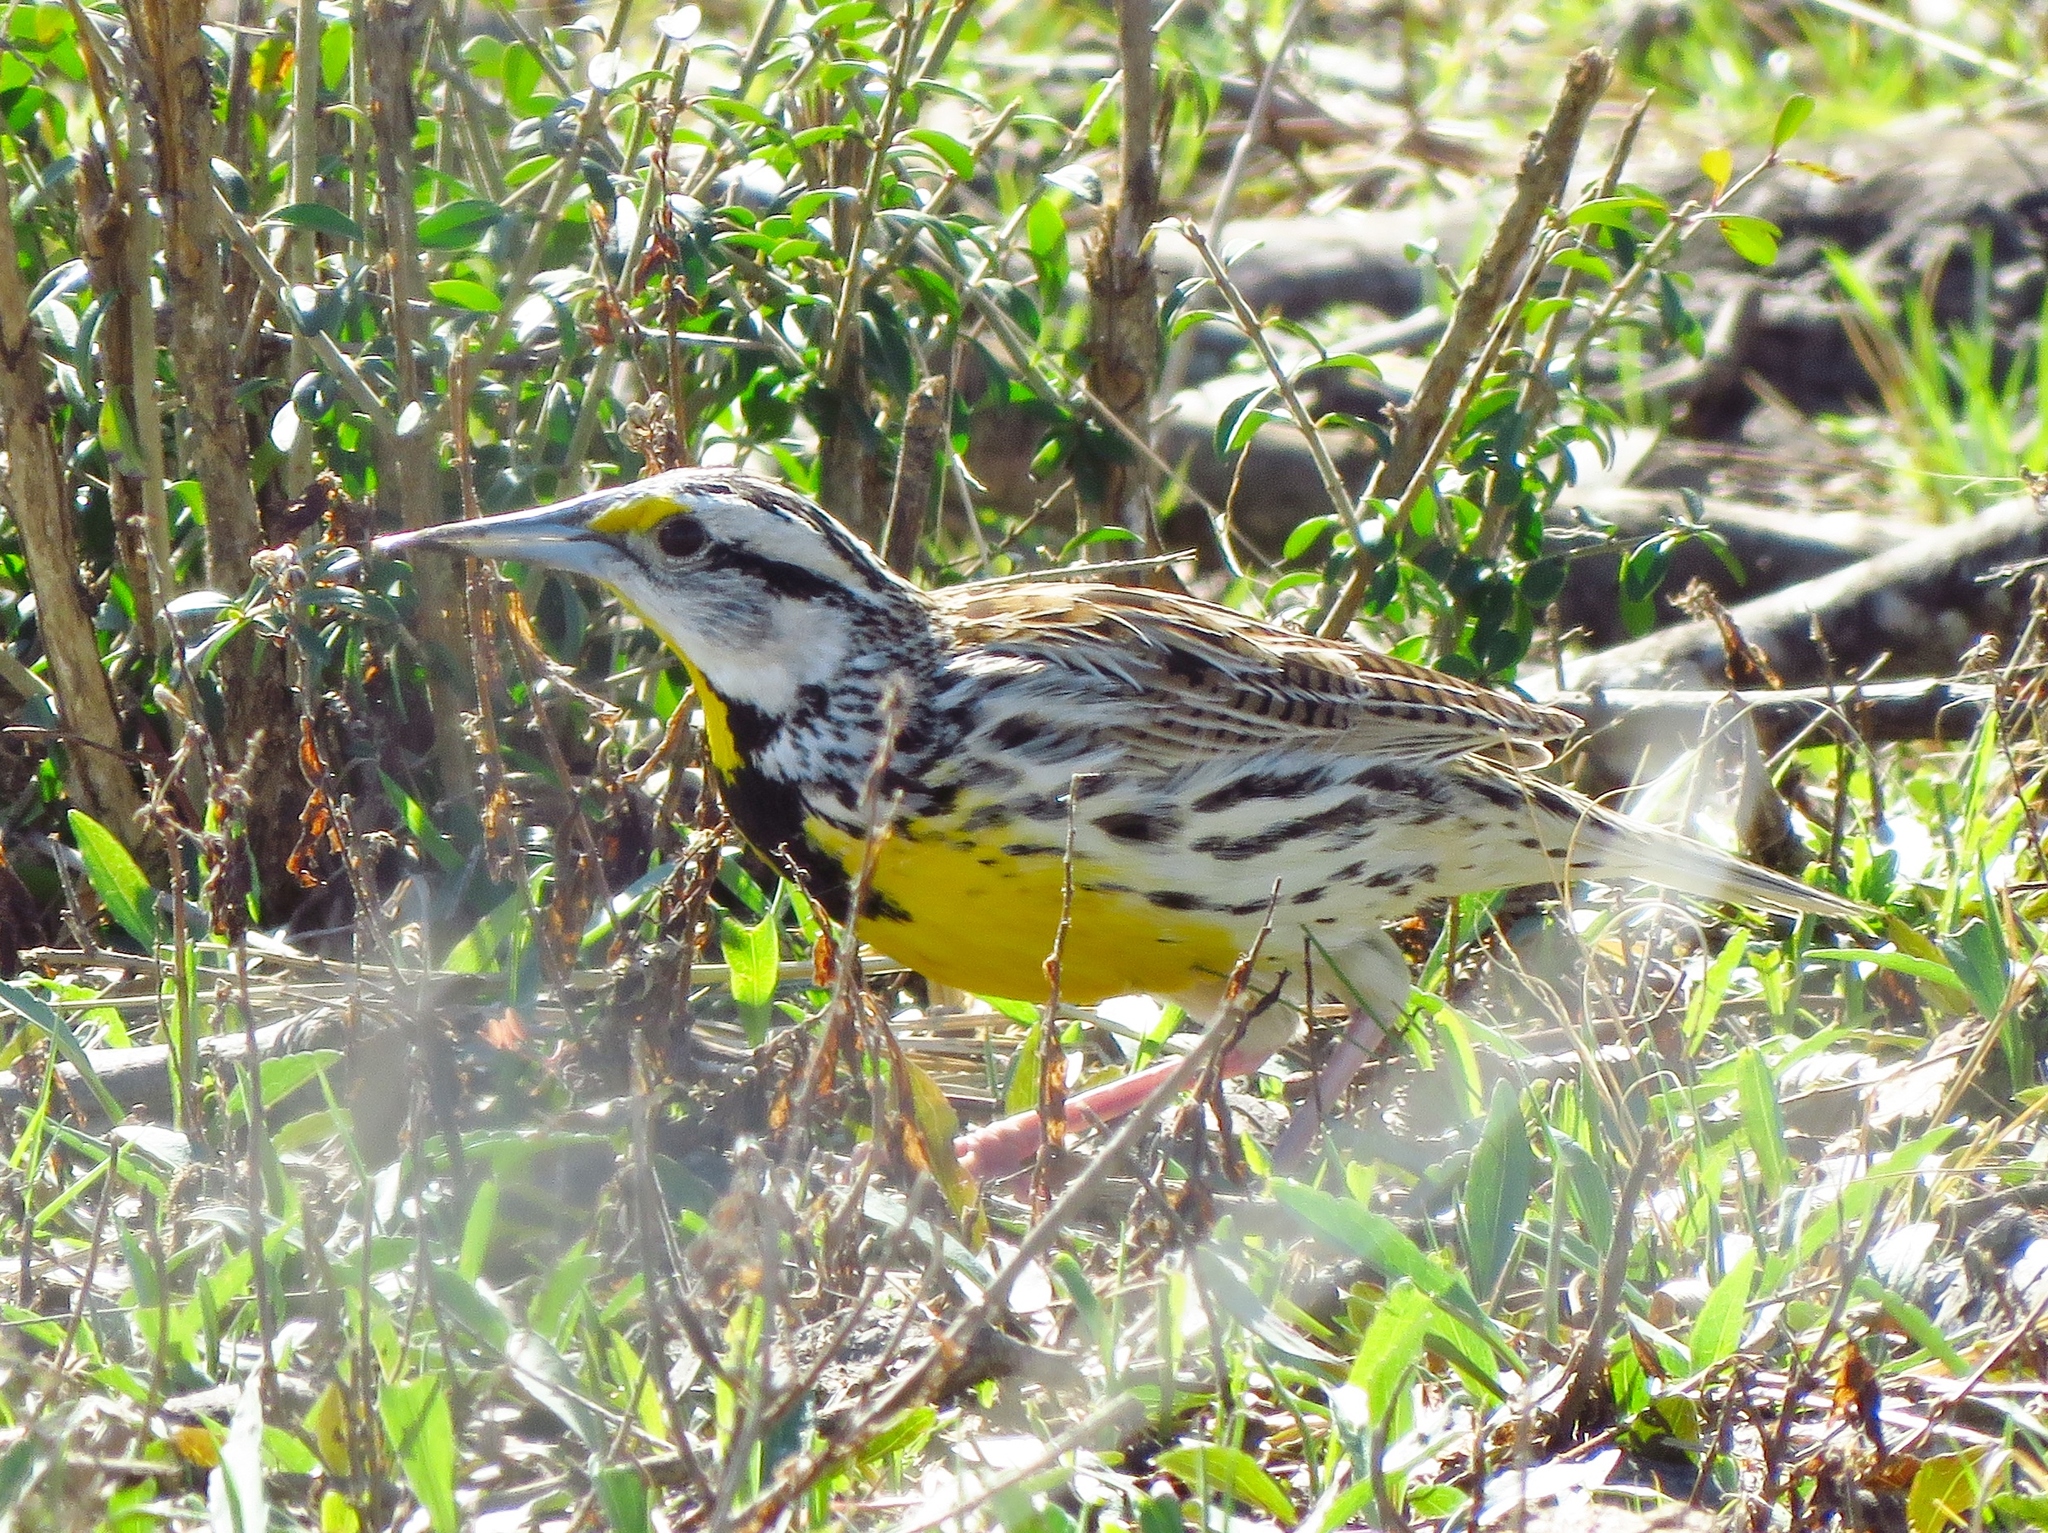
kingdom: Animalia
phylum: Chordata
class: Aves
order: Passeriformes
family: Icteridae
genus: Sturnella
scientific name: Sturnella magna
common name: Eastern meadowlark
